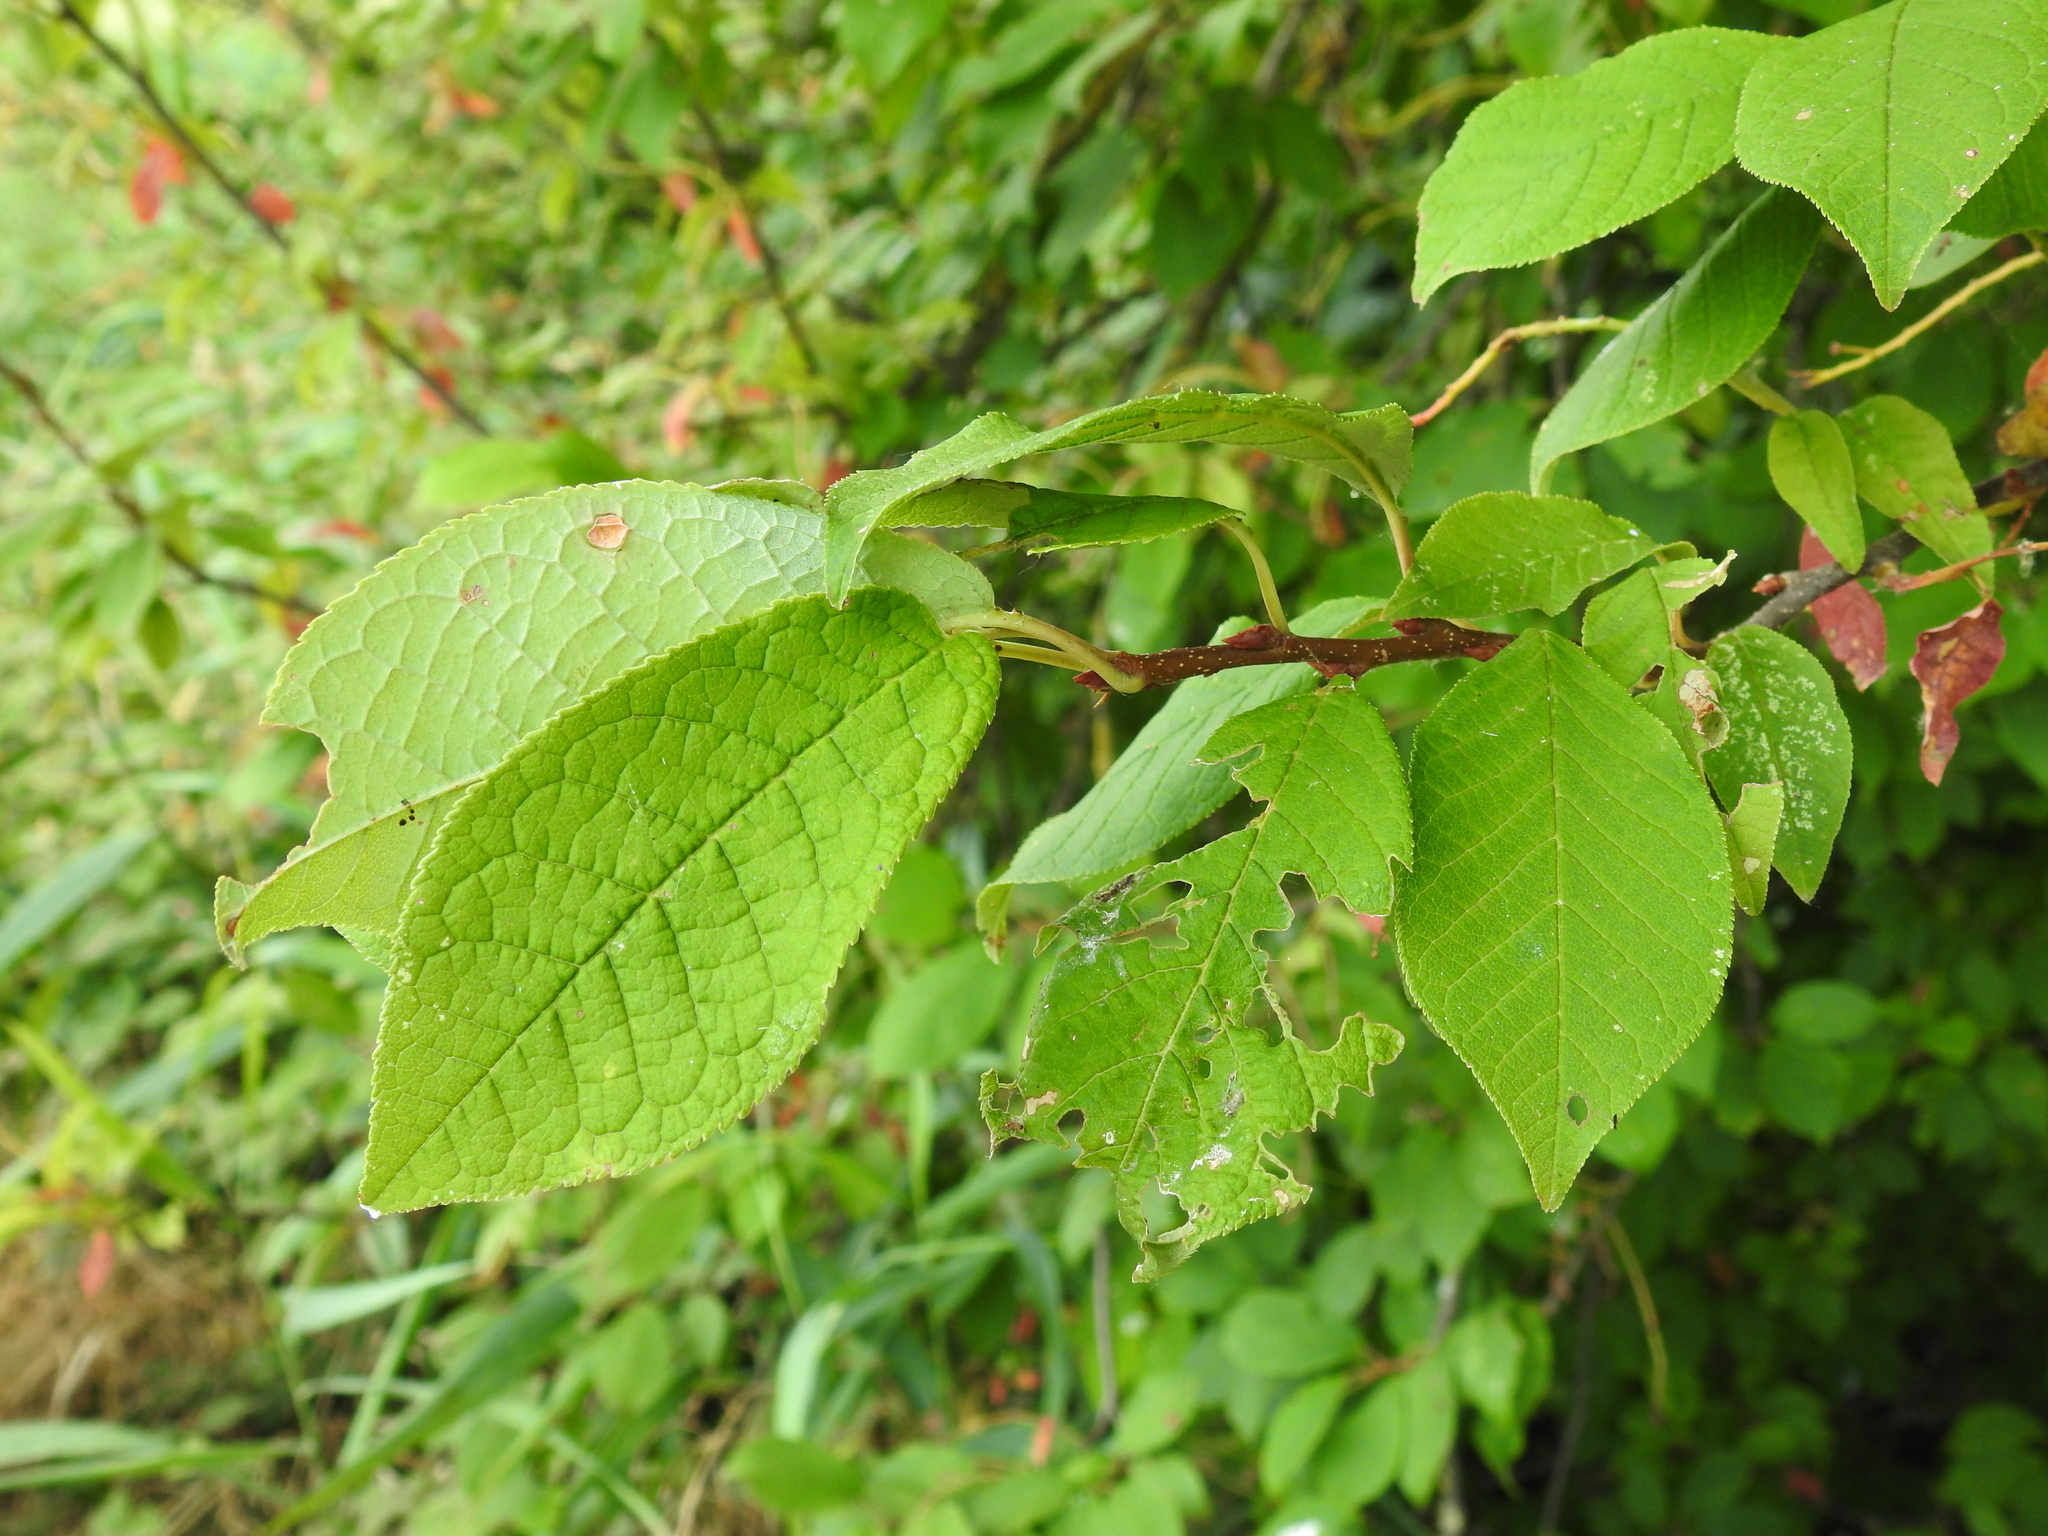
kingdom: Plantae
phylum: Tracheophyta
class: Magnoliopsida
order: Rosales
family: Rosaceae
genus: Prunus
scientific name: Prunus padus
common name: Bird cherry
